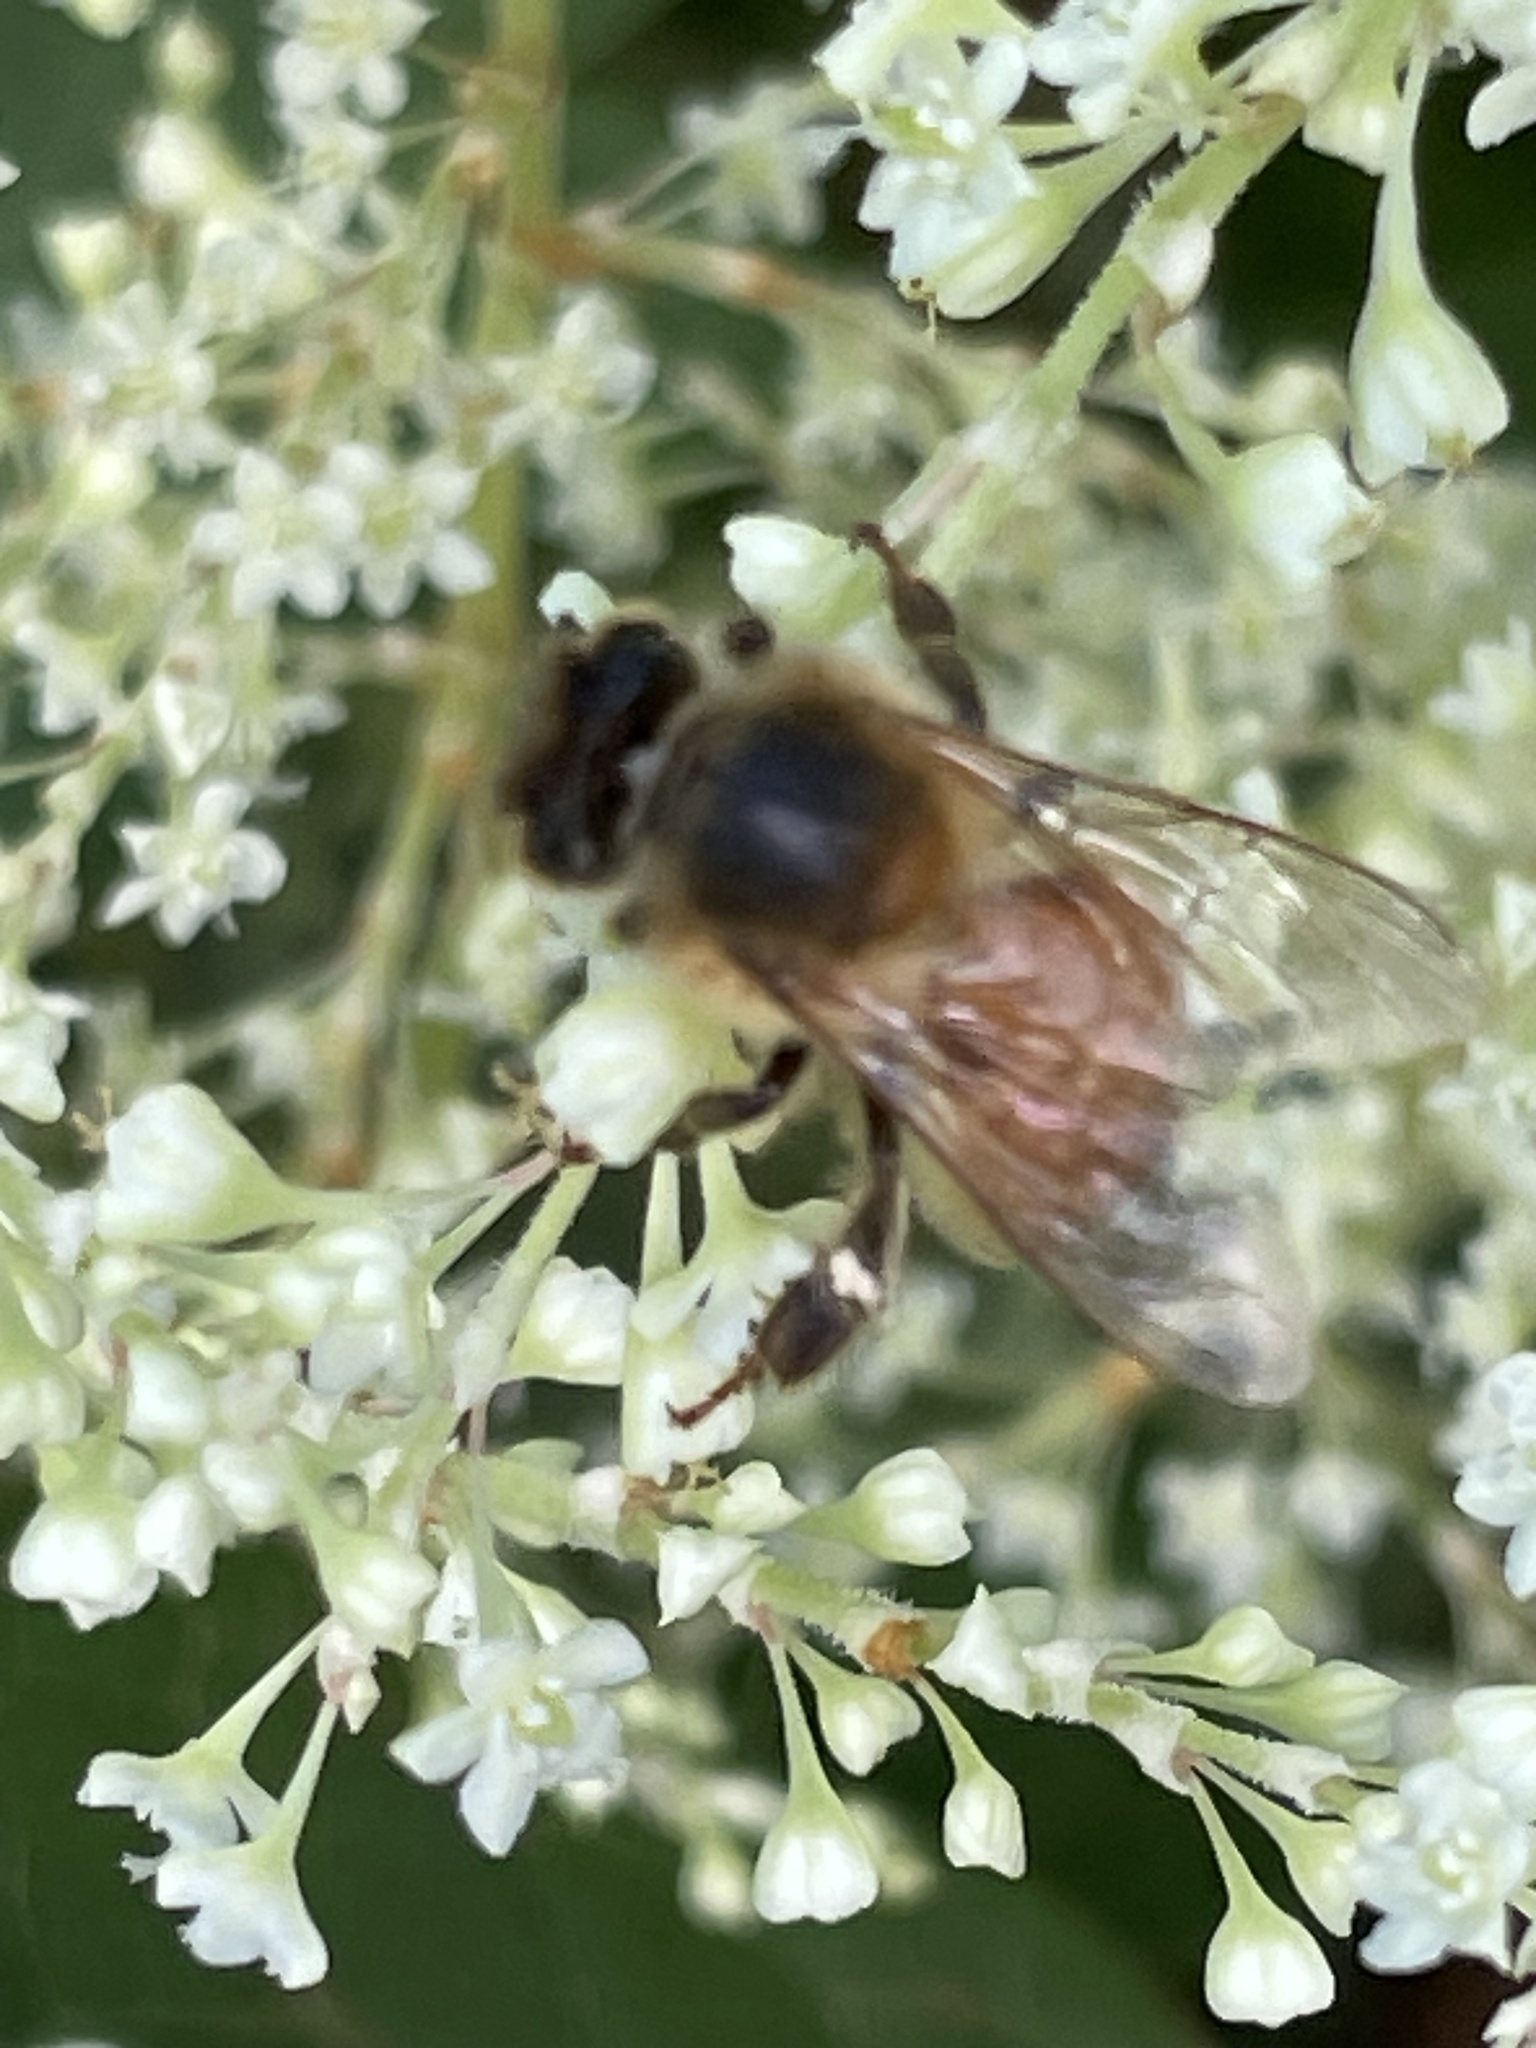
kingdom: Animalia
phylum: Arthropoda
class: Insecta
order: Hymenoptera
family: Apidae
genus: Apis
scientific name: Apis mellifera
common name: Honey bee
